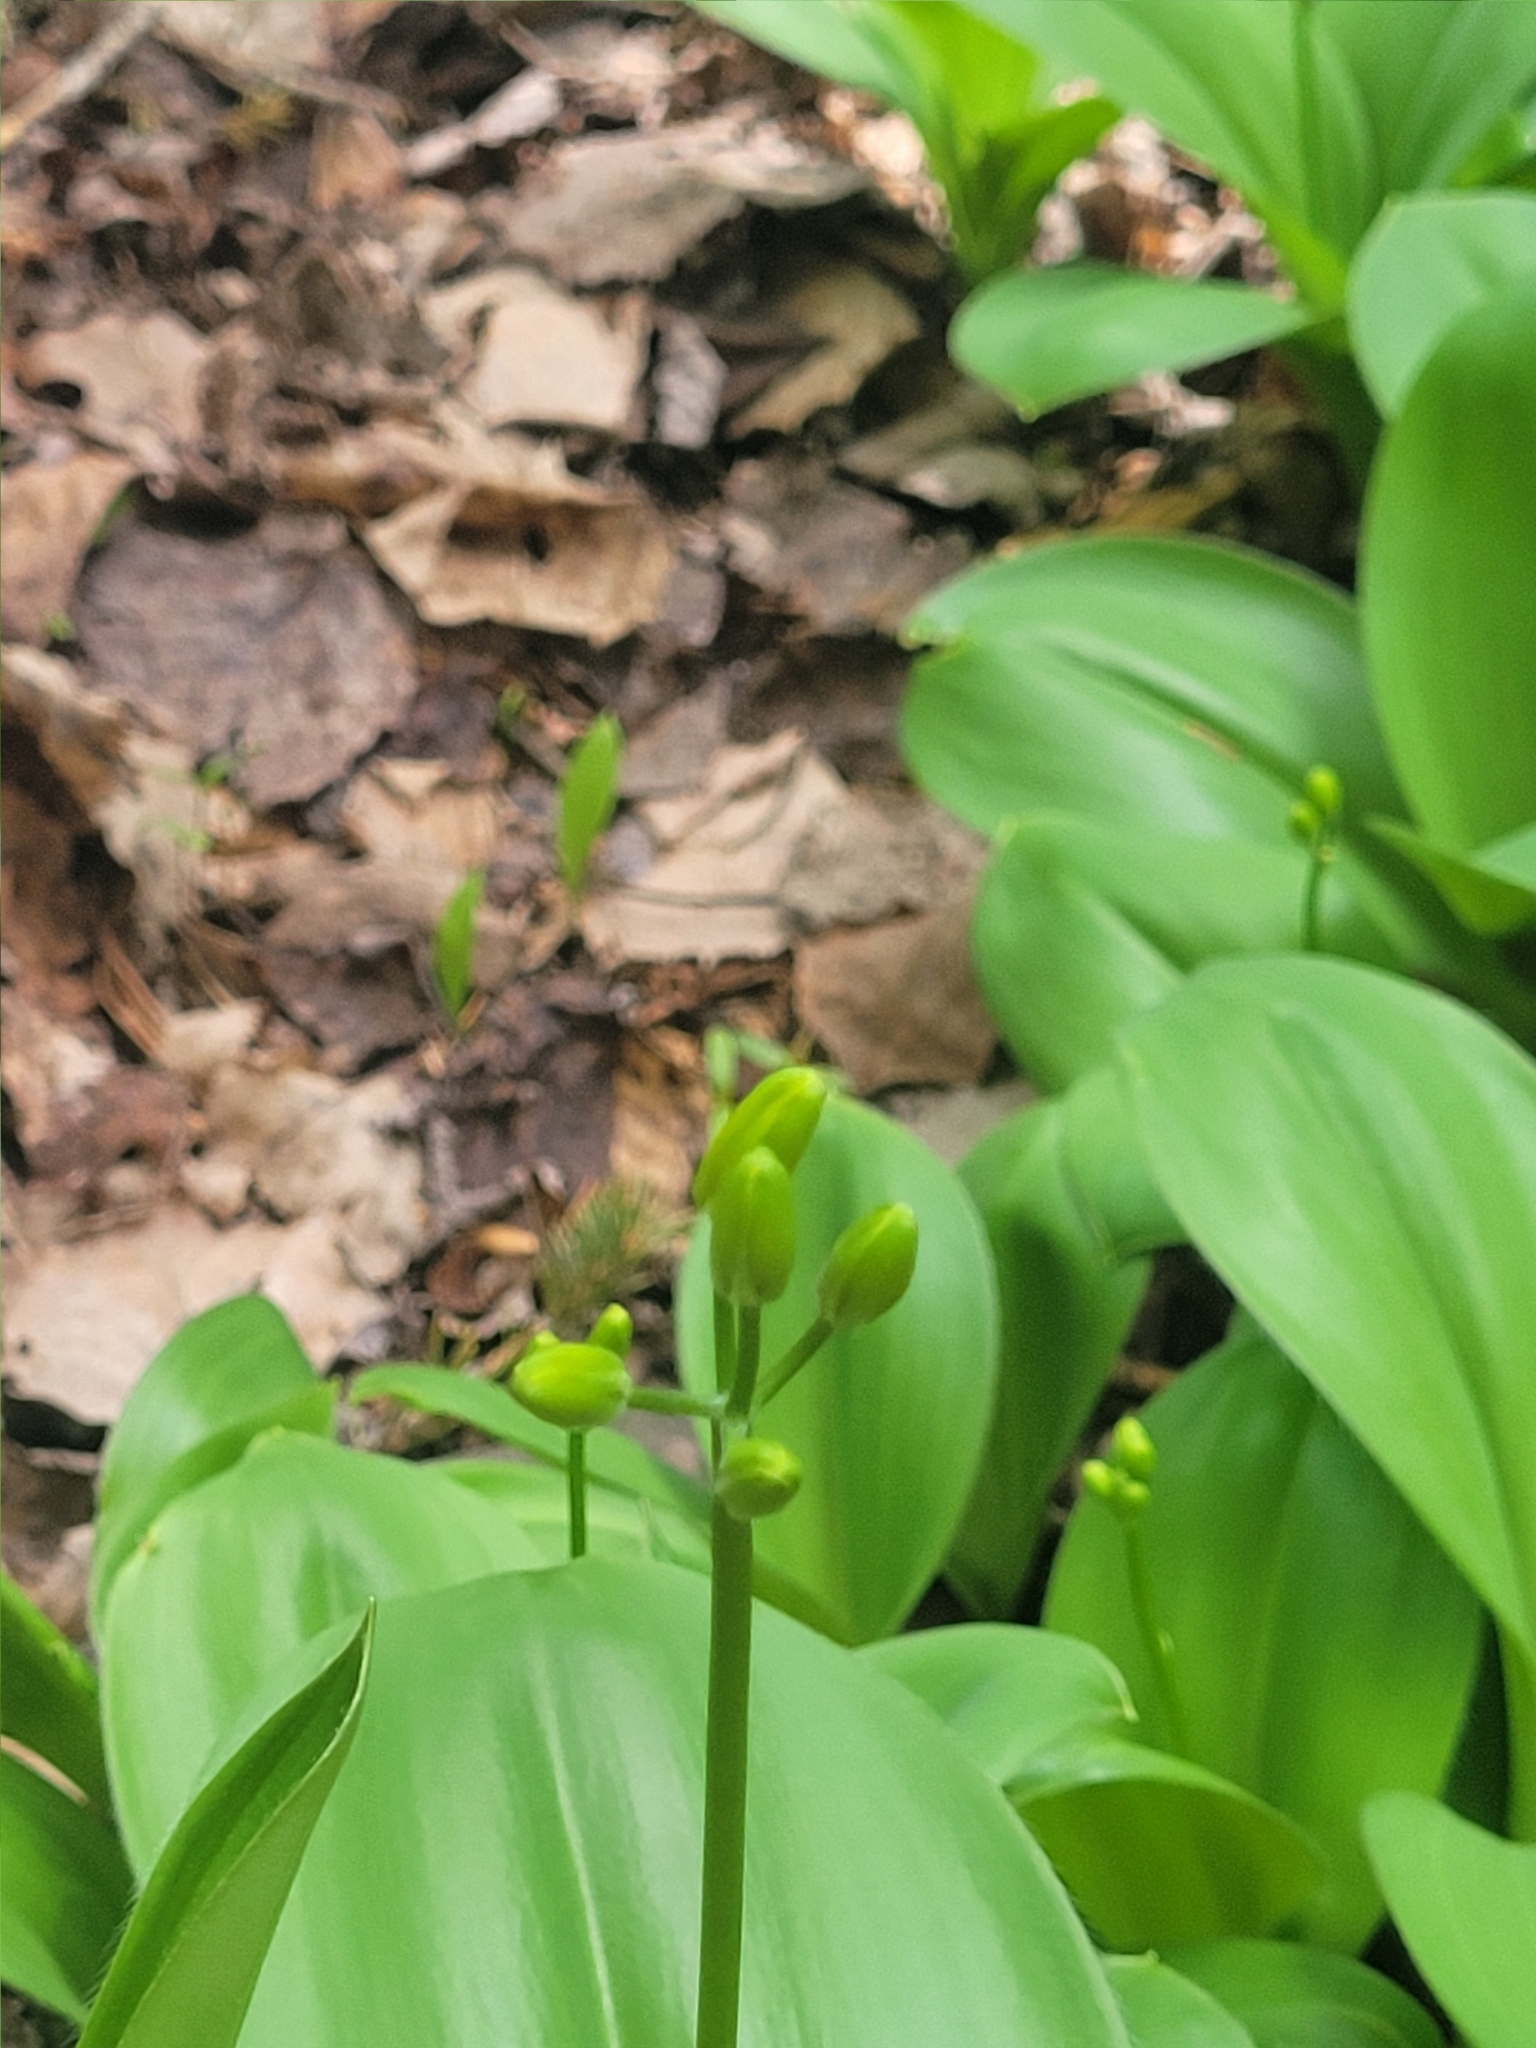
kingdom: Plantae
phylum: Tracheophyta
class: Liliopsida
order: Liliales
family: Liliaceae
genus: Clintonia
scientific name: Clintonia borealis
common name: Yellow clintonia
